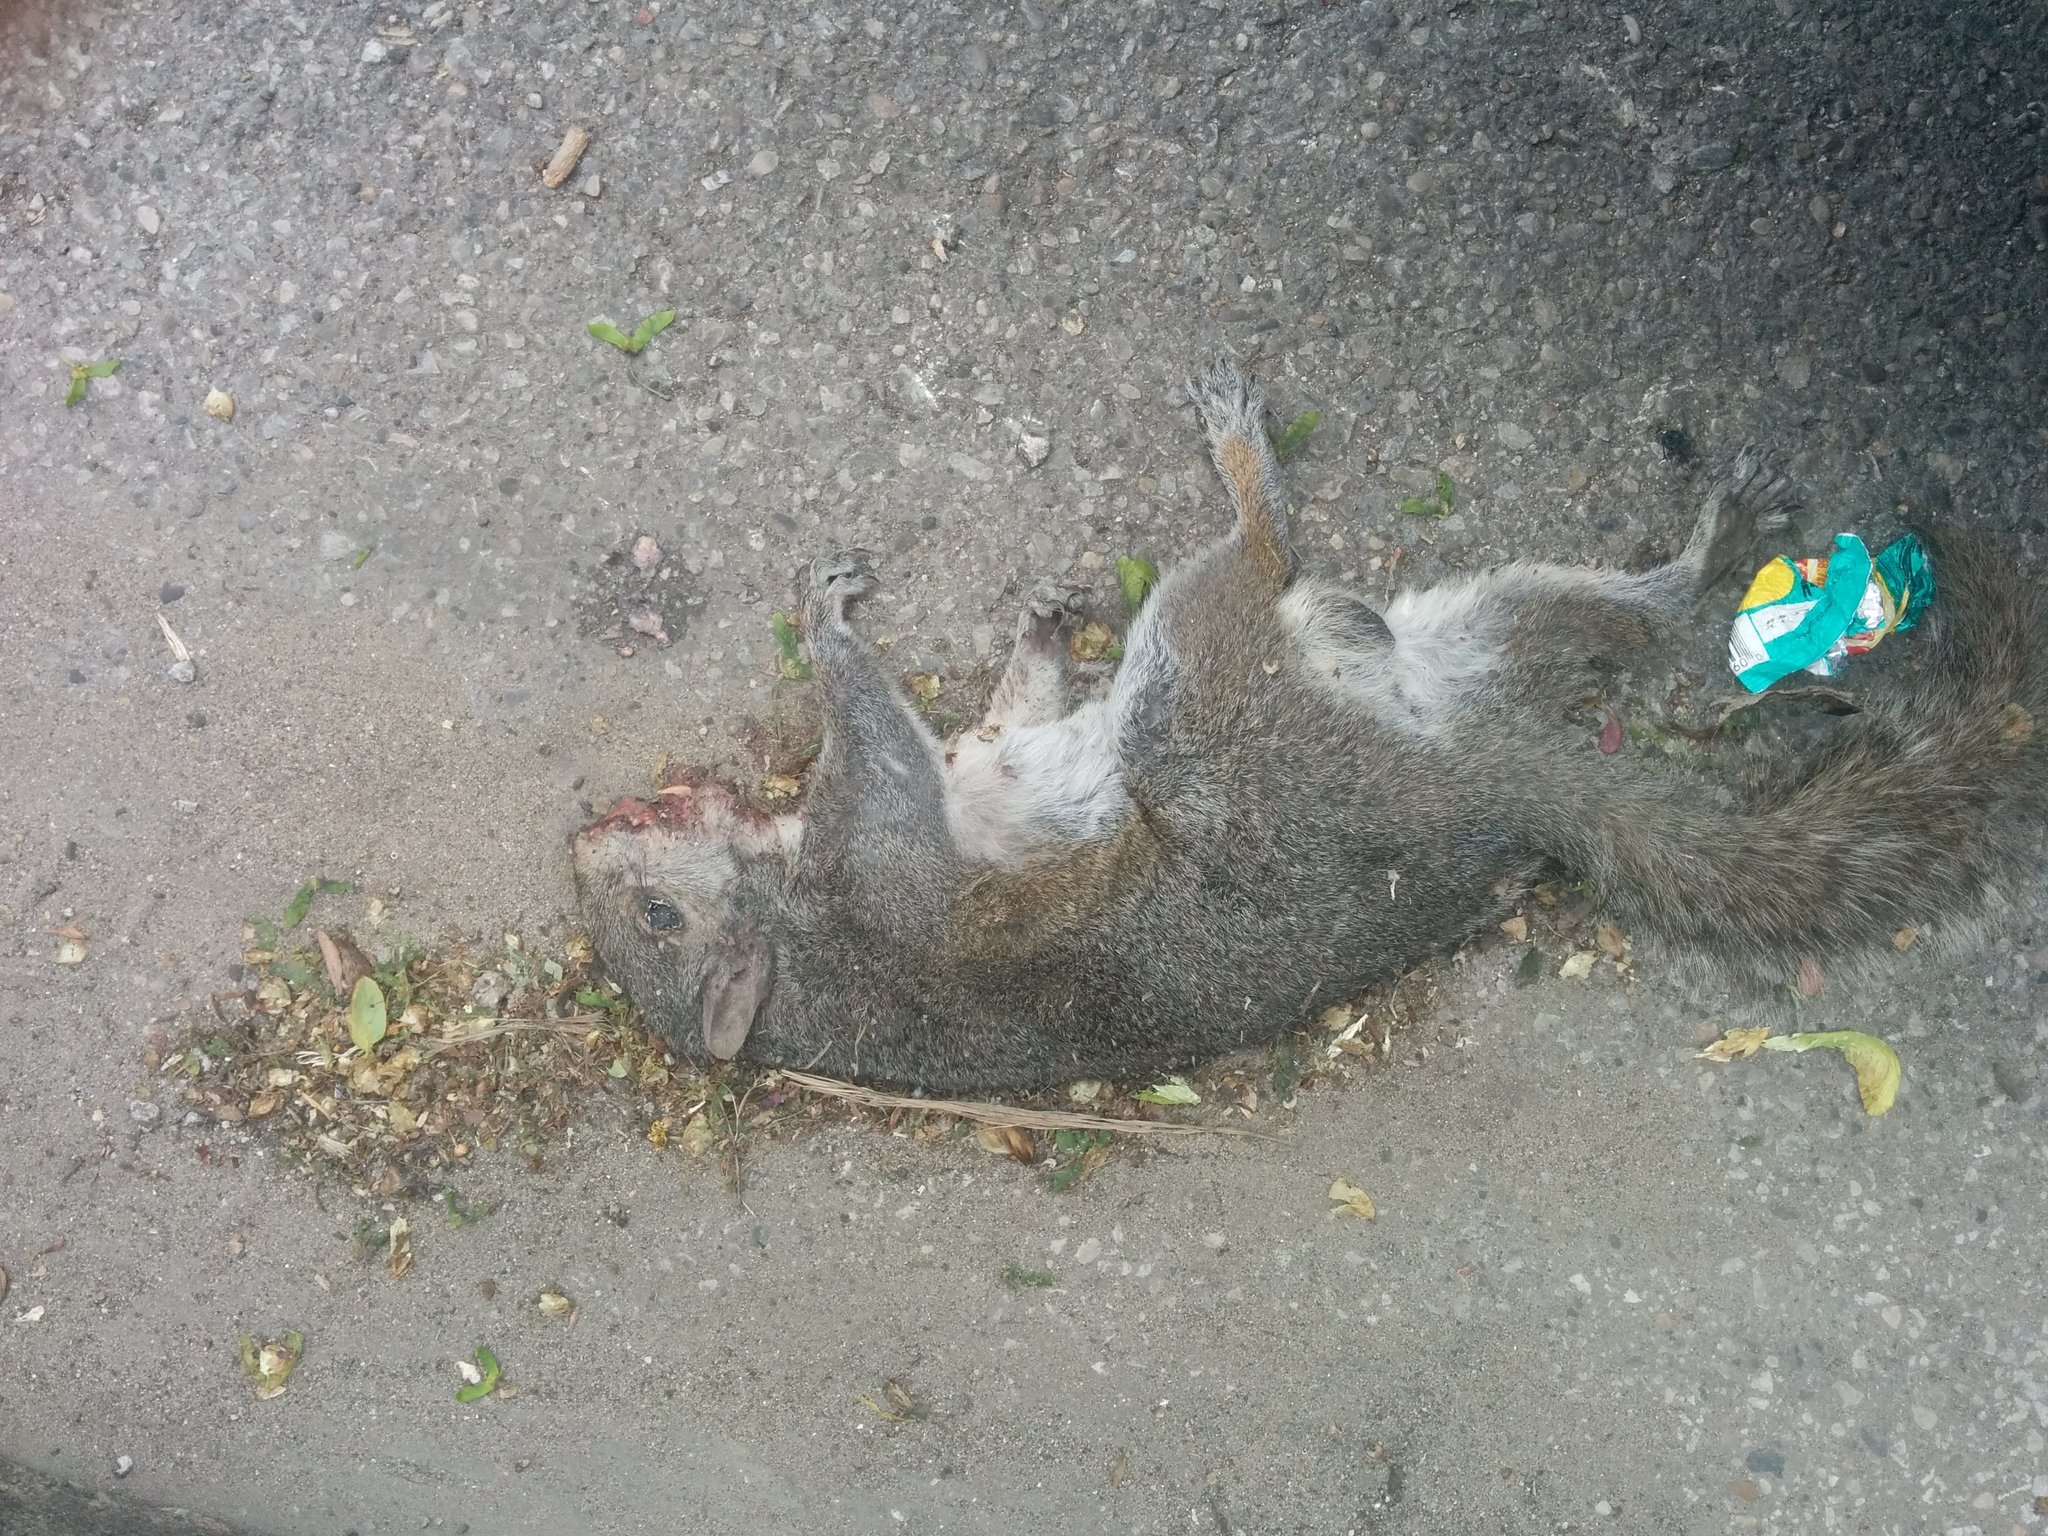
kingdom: Animalia
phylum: Chordata
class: Mammalia
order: Rodentia
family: Sciuridae
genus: Sciurus
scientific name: Sciurus carolinensis
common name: Eastern gray squirrel
